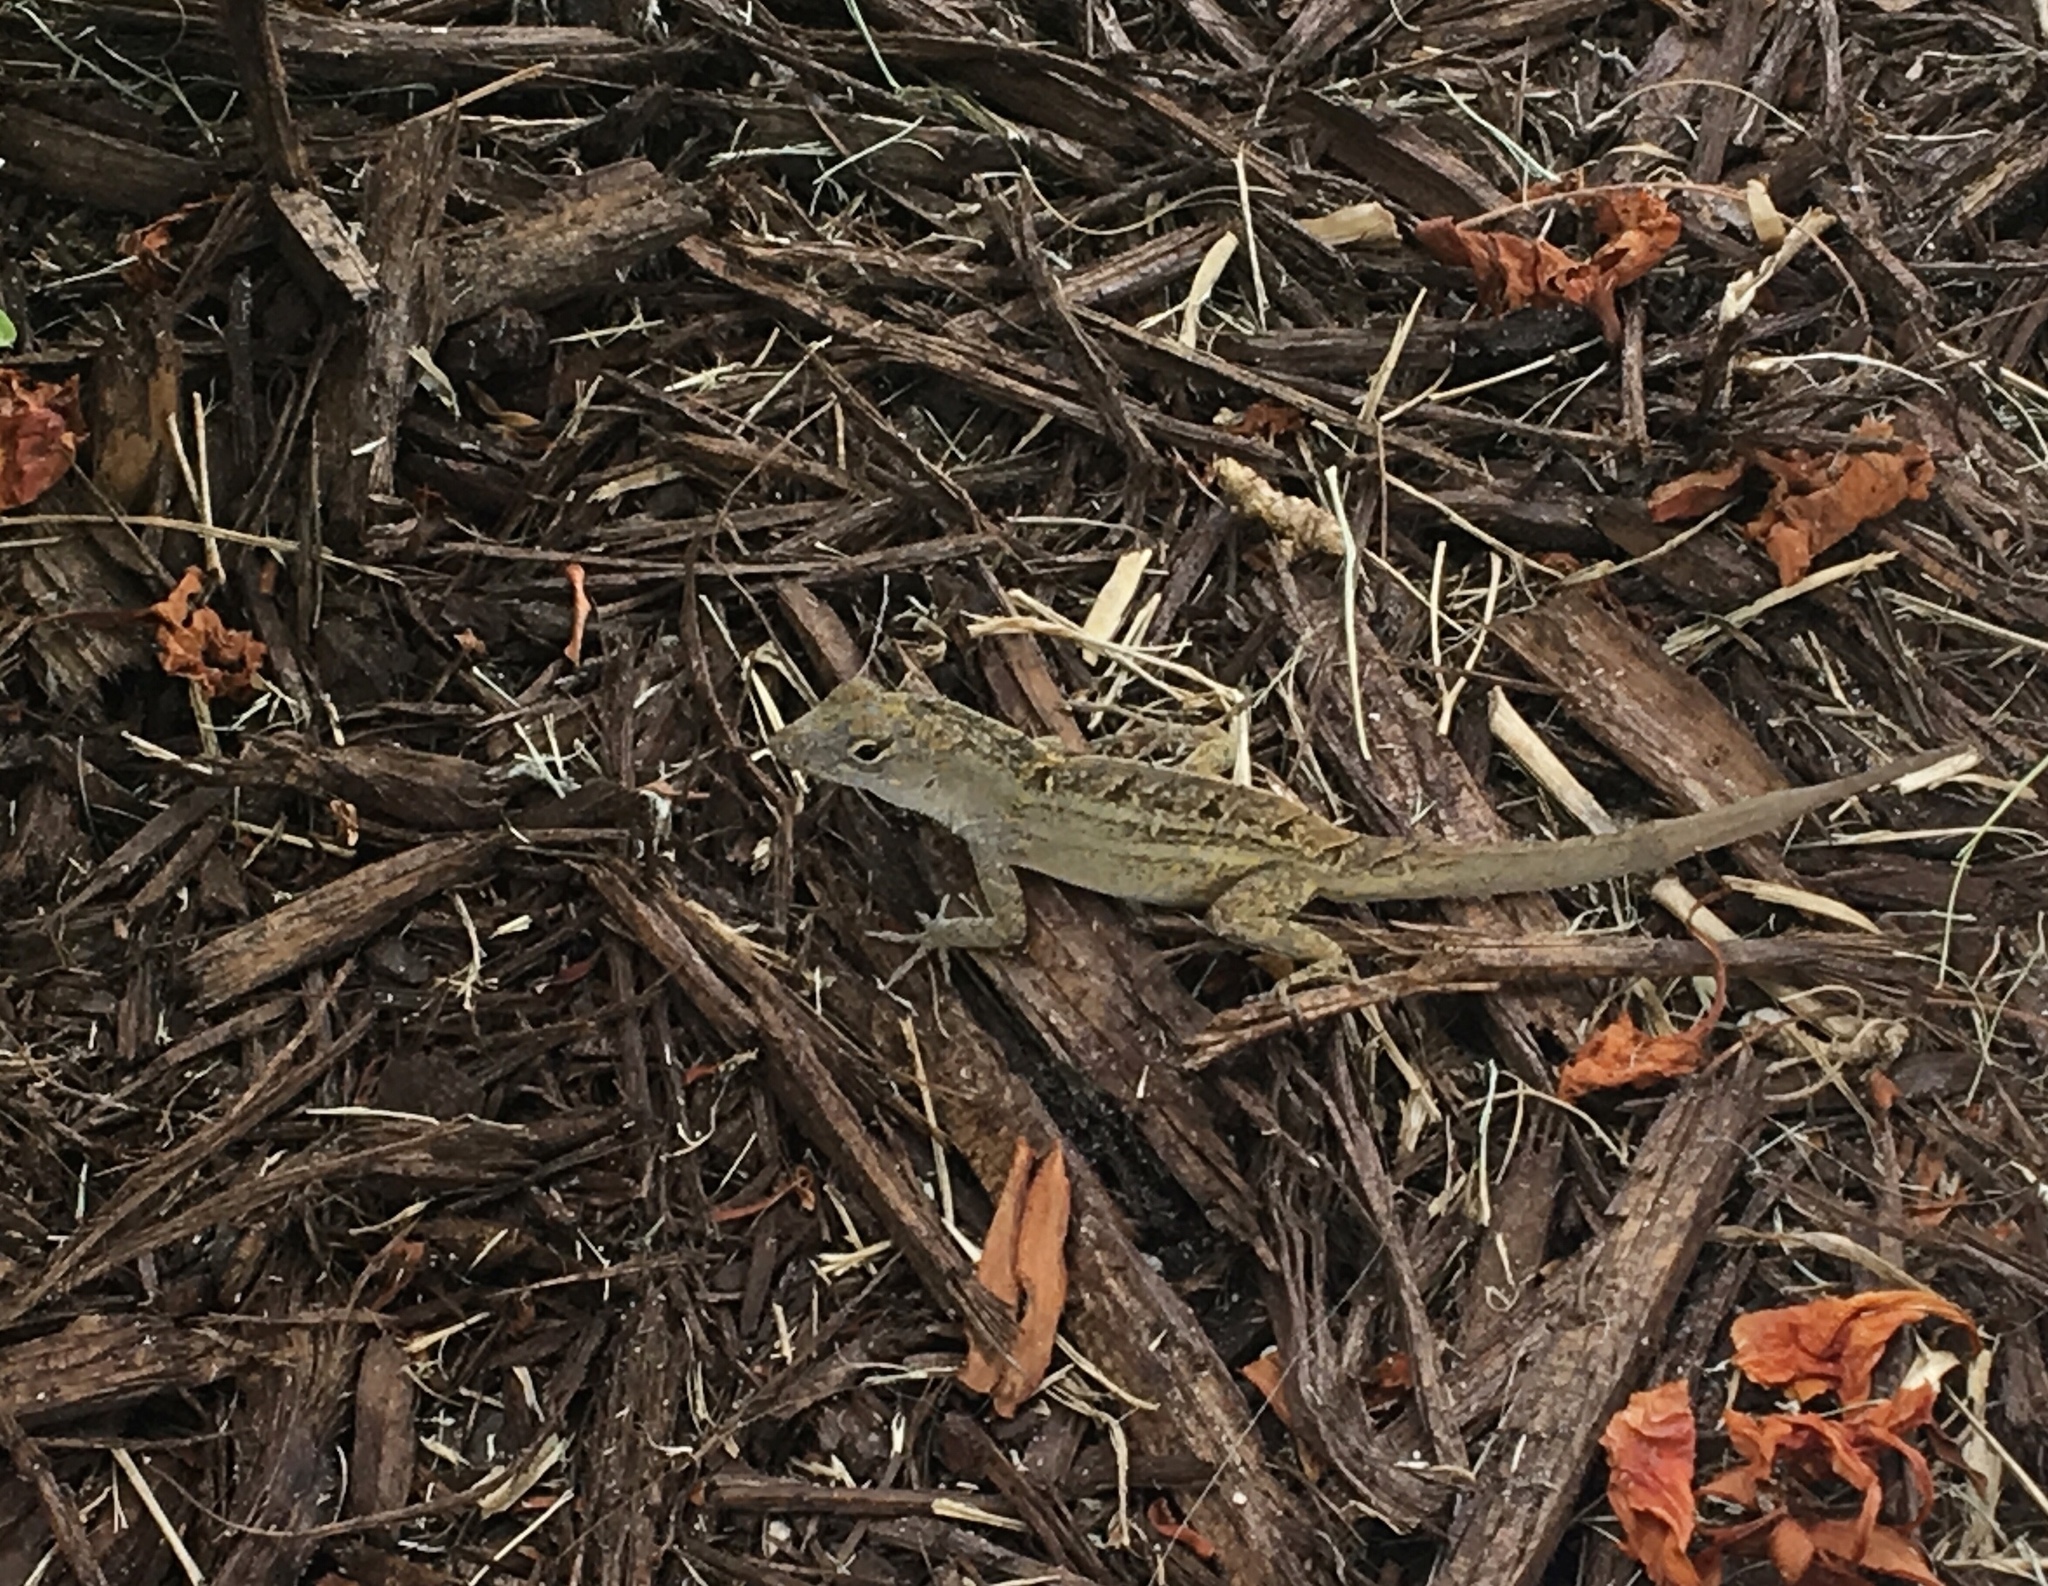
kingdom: Animalia
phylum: Chordata
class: Squamata
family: Dactyloidae
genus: Anolis
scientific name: Anolis sagrei
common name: Brown anole
